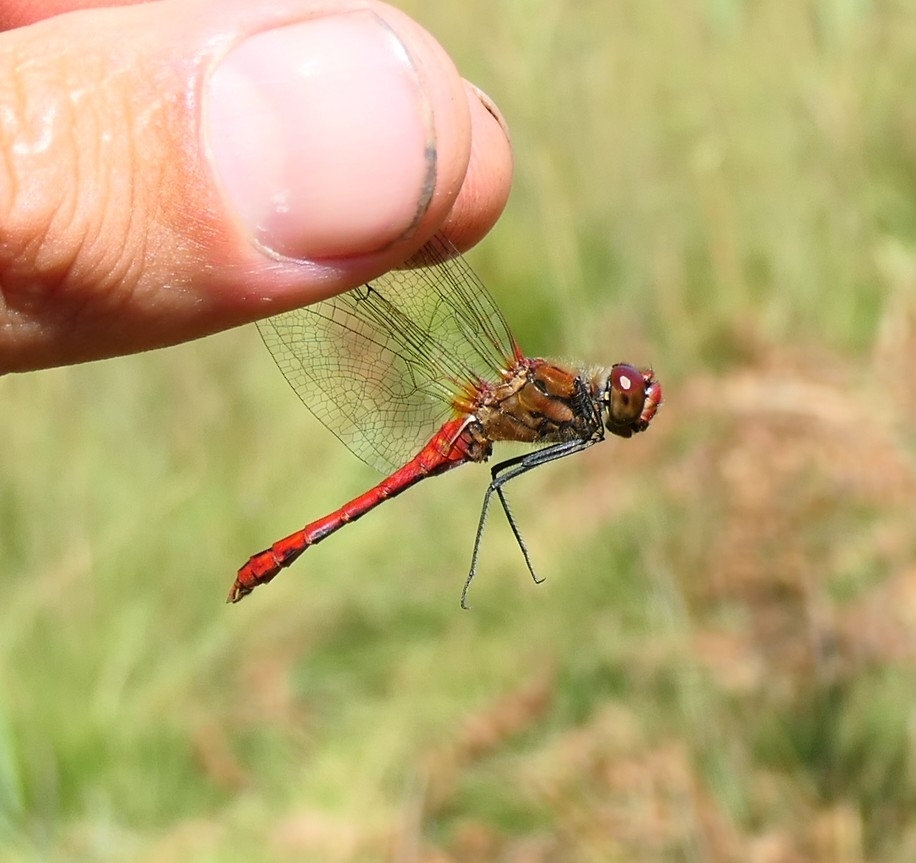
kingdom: Animalia
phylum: Arthropoda
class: Insecta
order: Odonata
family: Libellulidae
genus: Sympetrum
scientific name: Sympetrum sanguineum
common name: Ruddy darter
